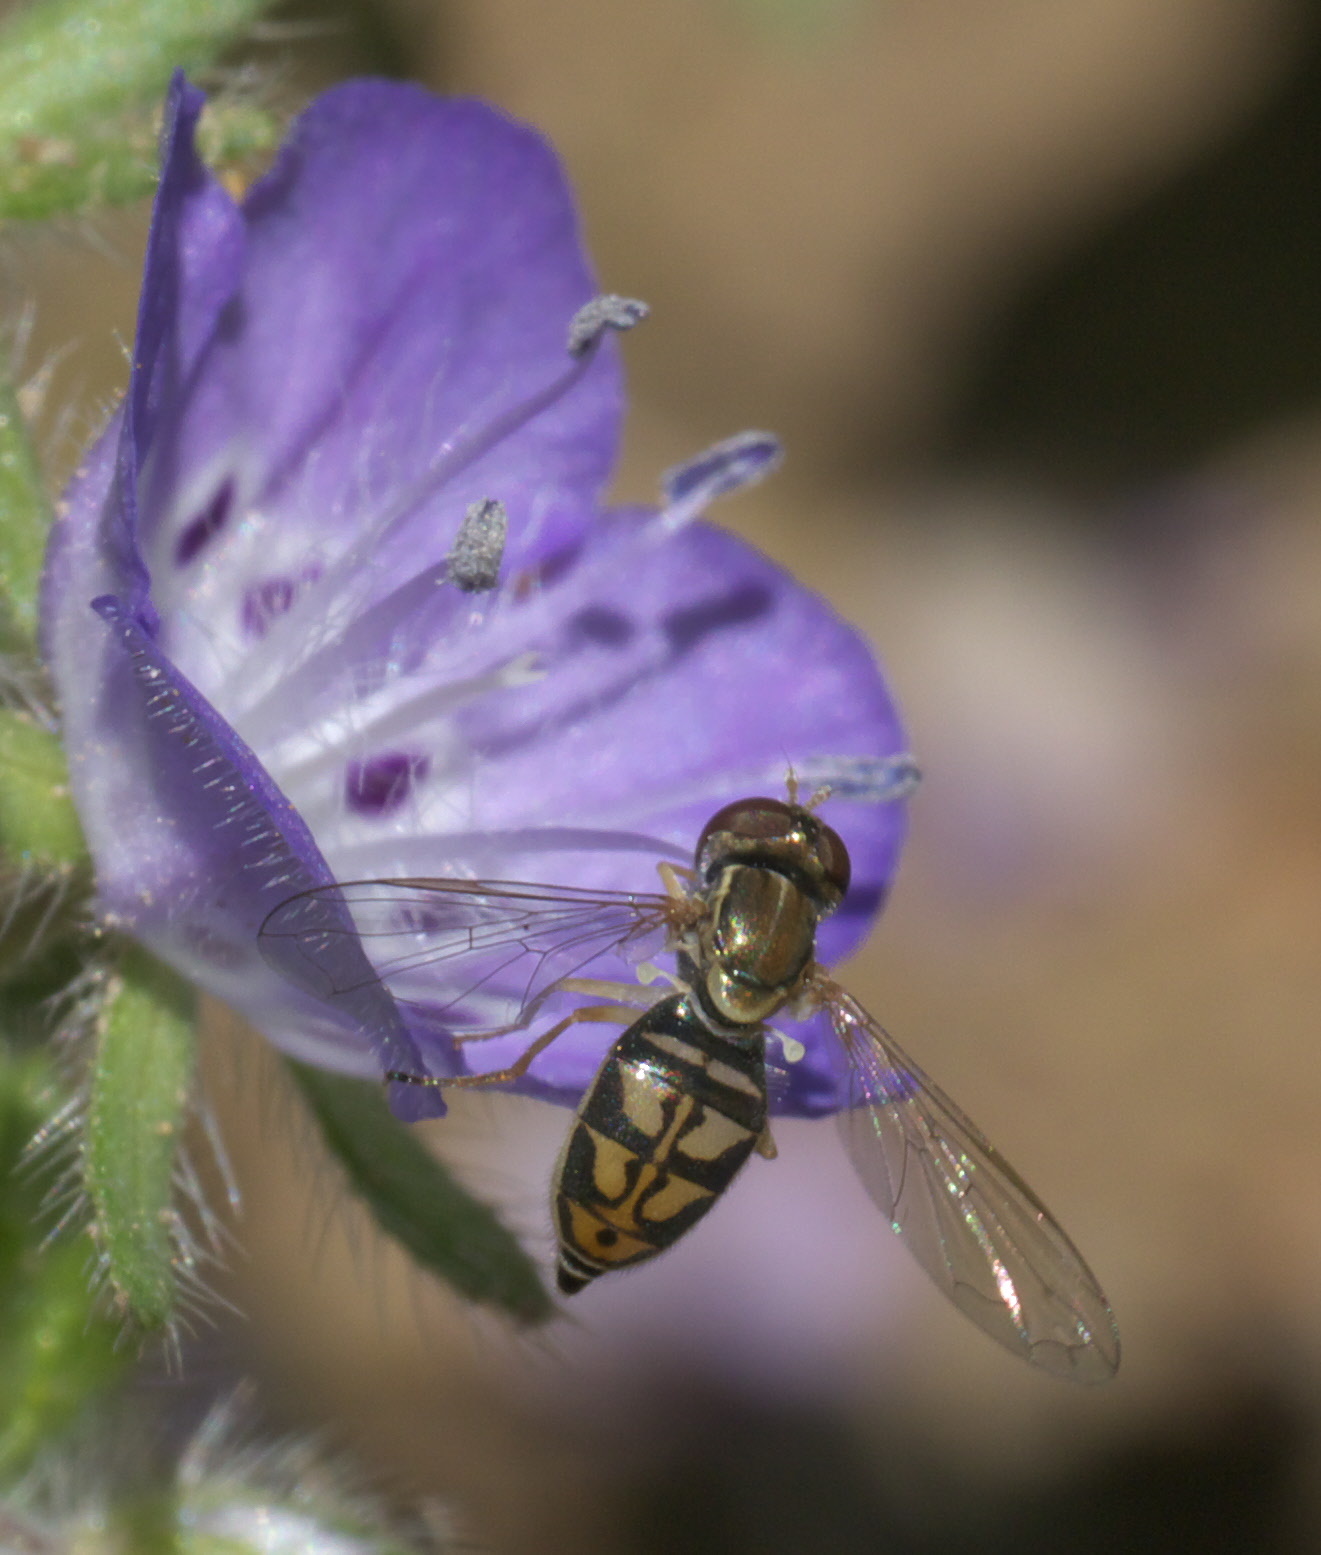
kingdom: Animalia
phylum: Arthropoda
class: Insecta
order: Diptera
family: Syrphidae
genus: Toxomerus
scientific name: Toxomerus marginatus
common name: Syrphid fly
